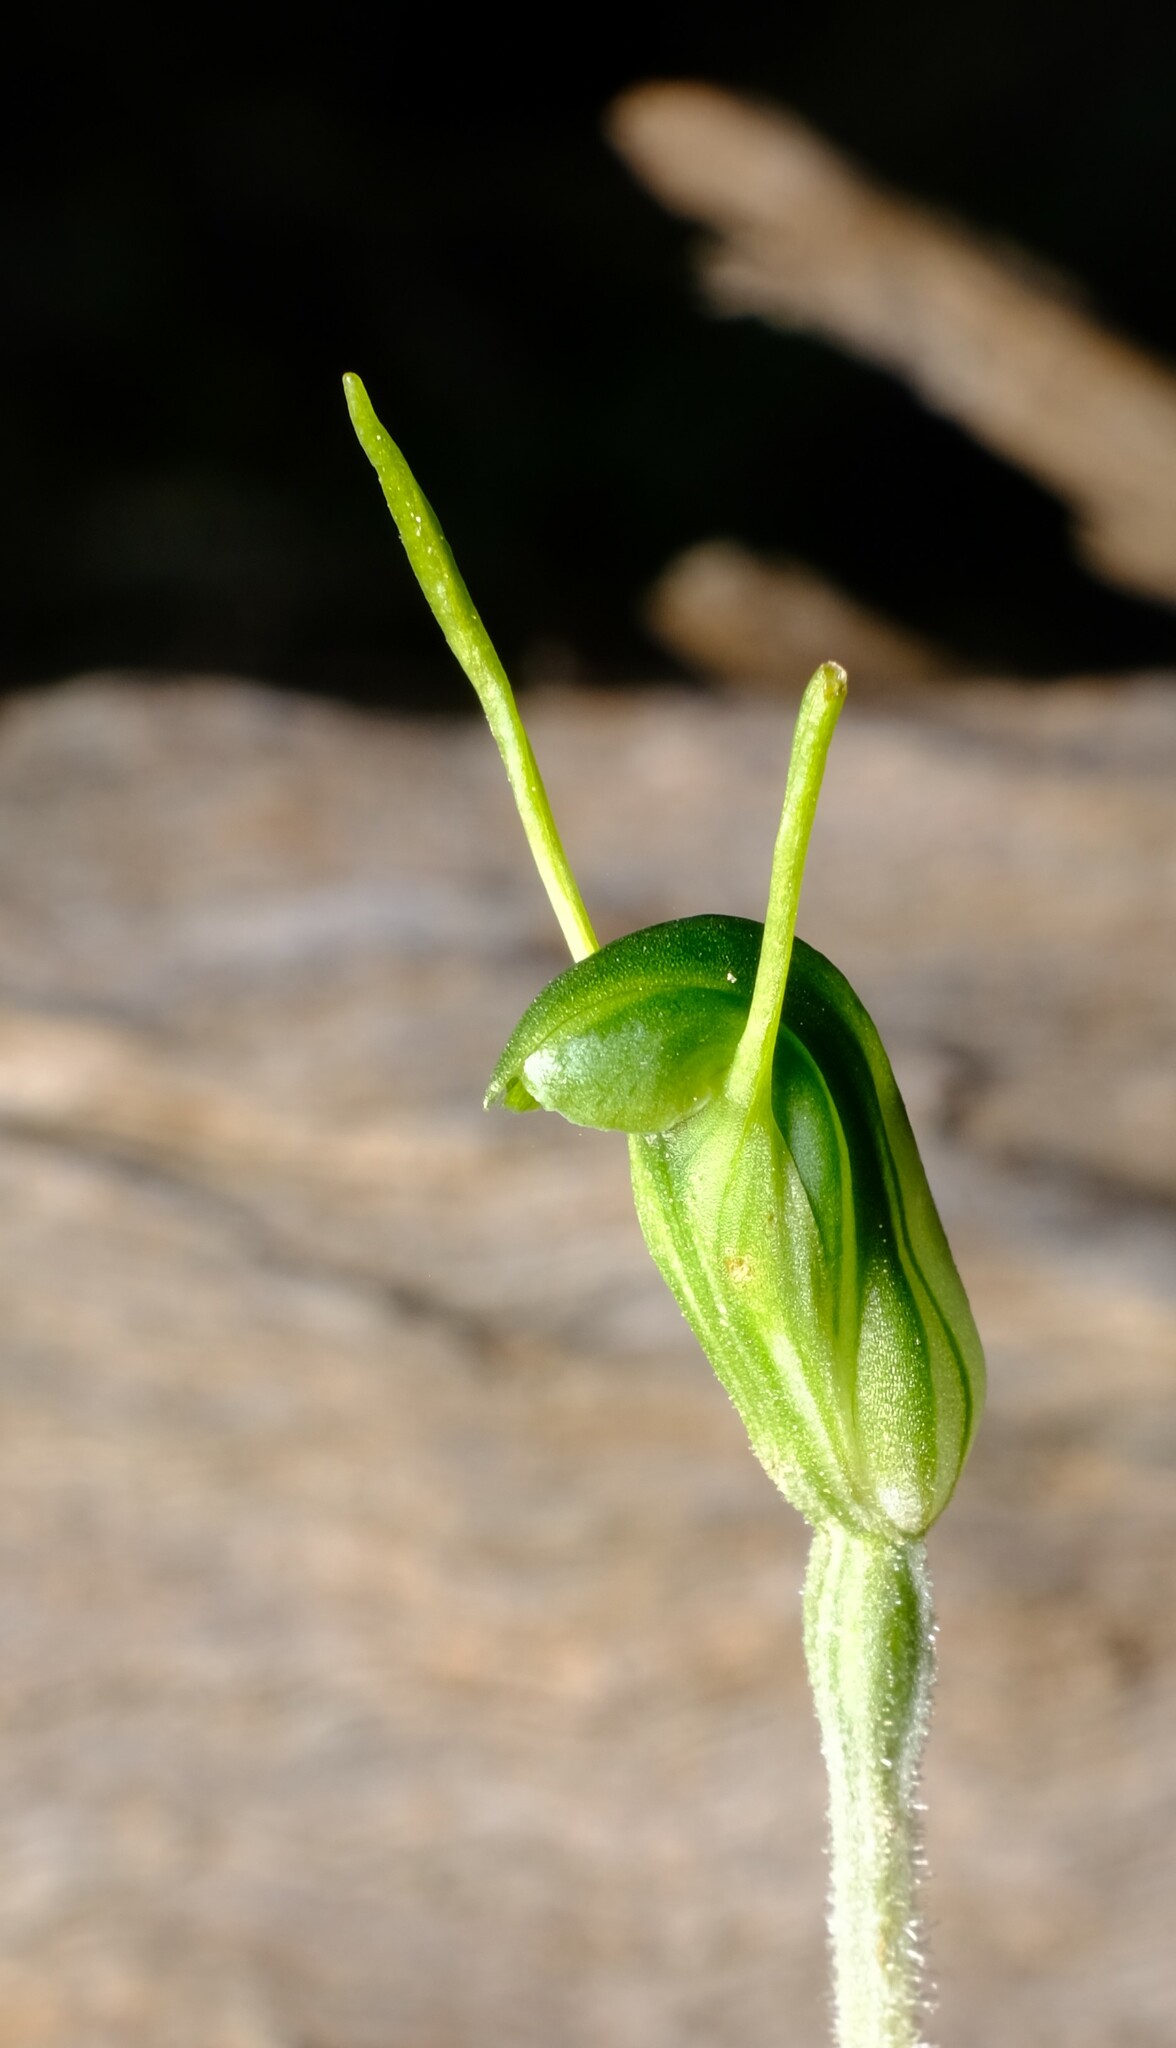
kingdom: Plantae
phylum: Tracheophyta
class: Liliopsida
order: Asparagales
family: Orchidaceae
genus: Pterostylis
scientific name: Pterostylis nana
